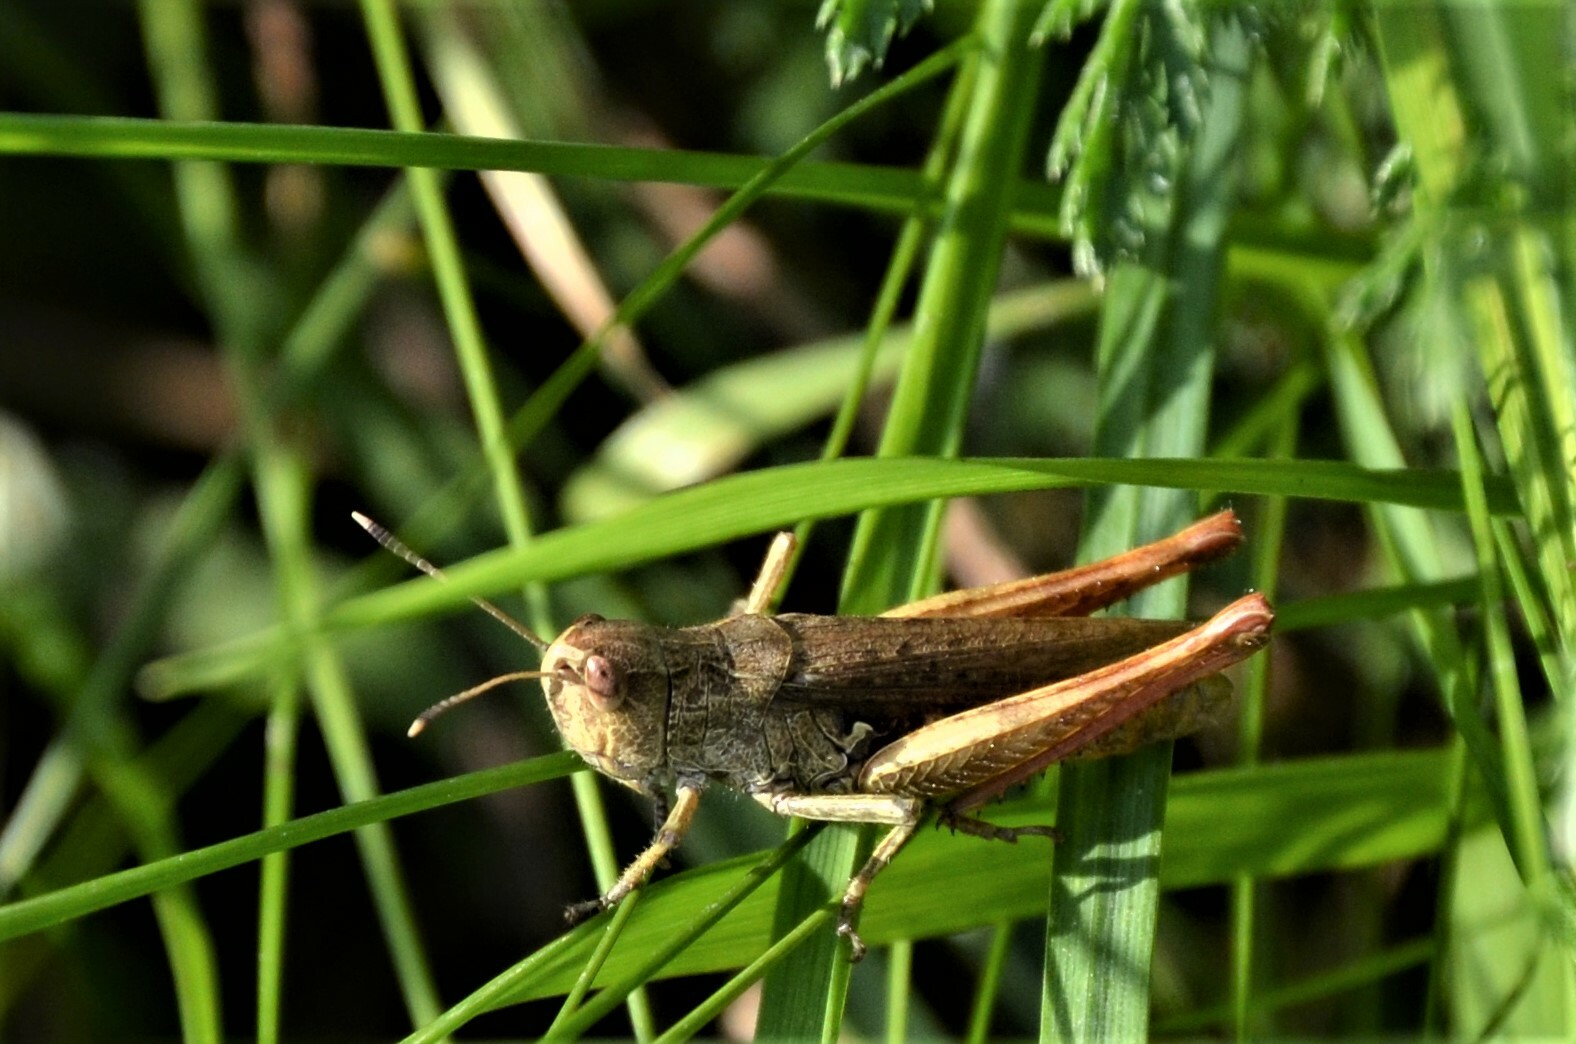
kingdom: Animalia
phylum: Arthropoda
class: Insecta
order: Orthoptera
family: Acrididae
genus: Gomphocerippus
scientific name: Gomphocerippus rufus
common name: Rufous grasshopper
